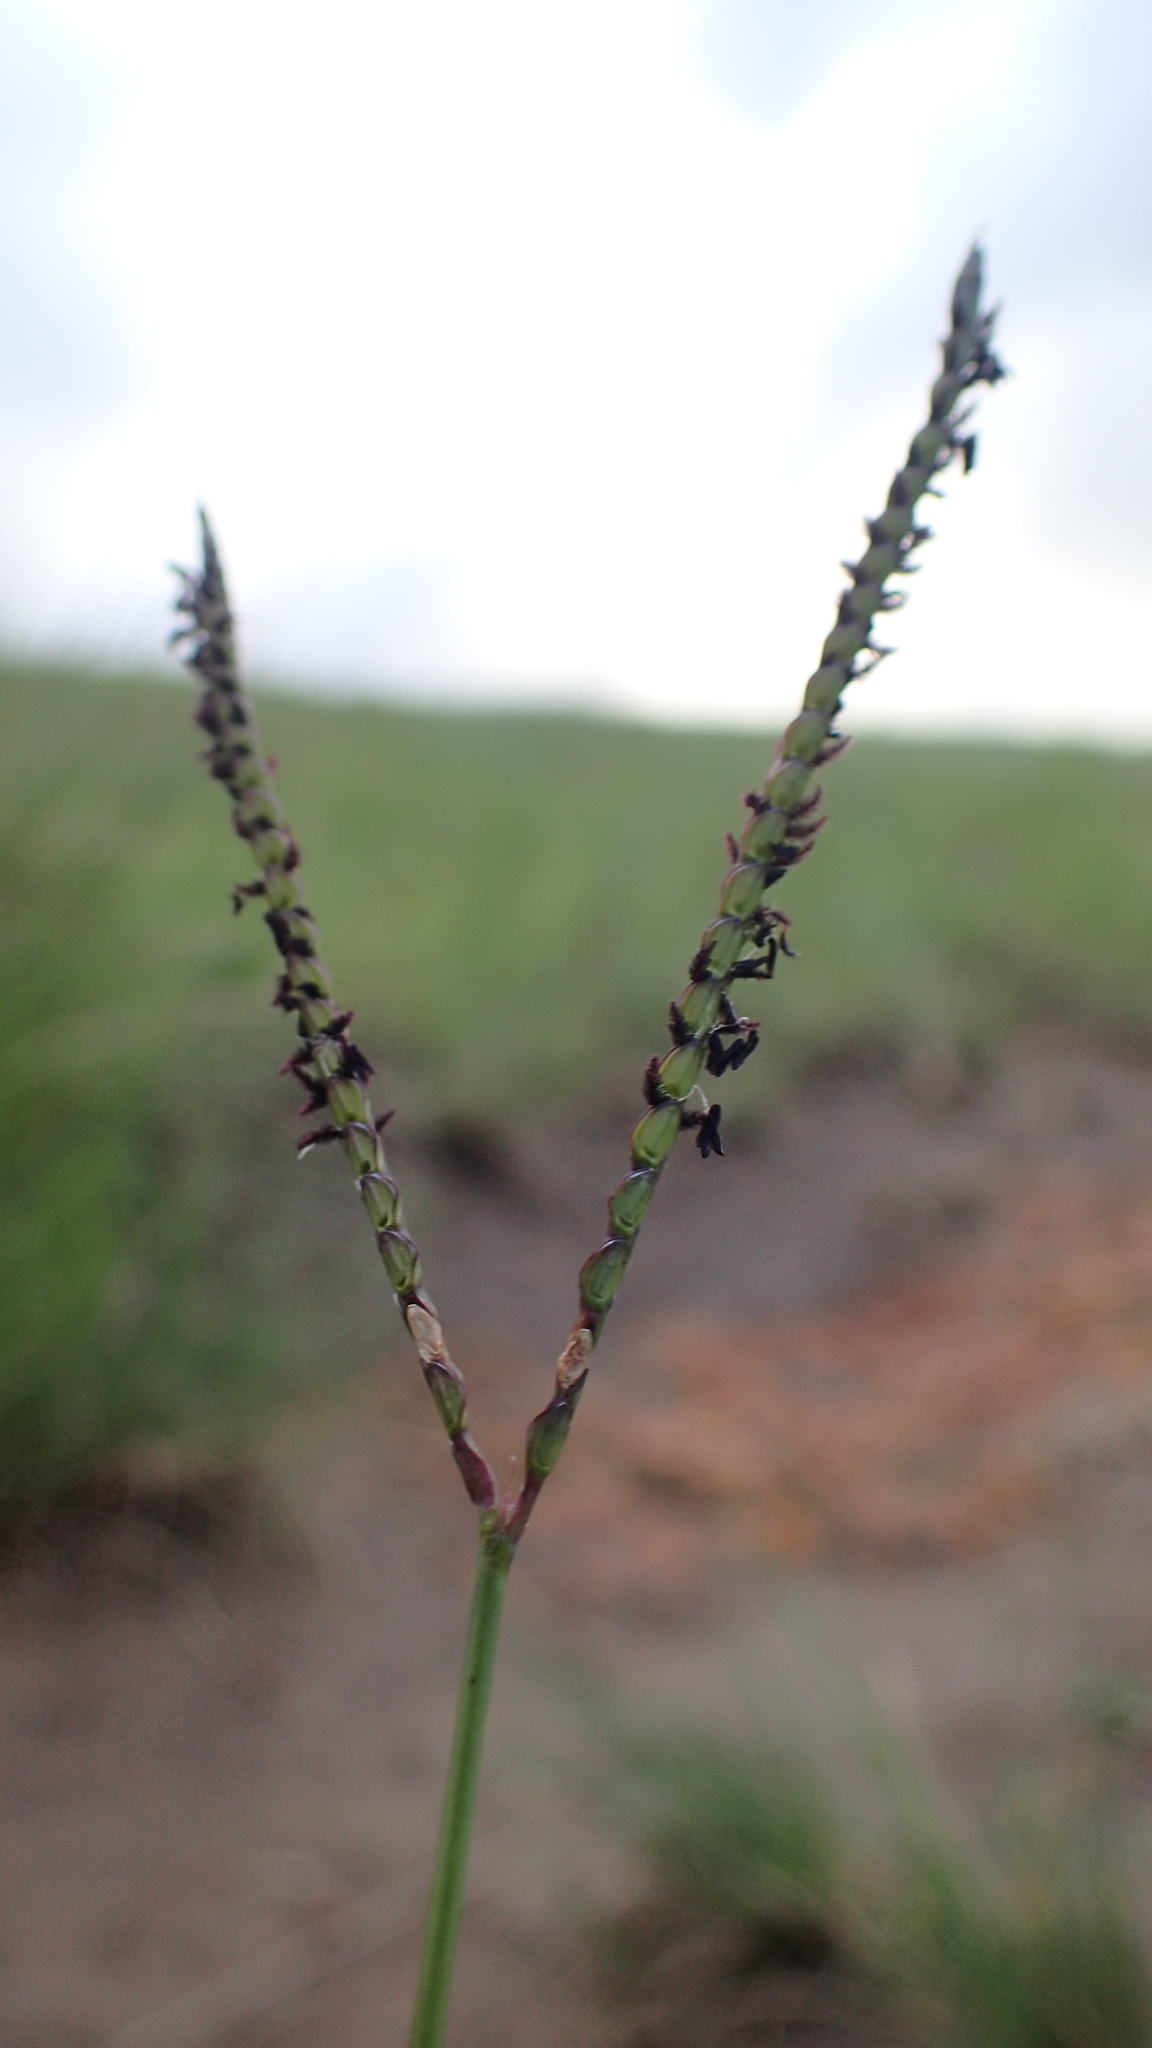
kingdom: Plantae
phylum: Tracheophyta
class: Liliopsida
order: Poales
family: Poaceae
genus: Paspalum
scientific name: Paspalum notatum
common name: Bahiagrass
